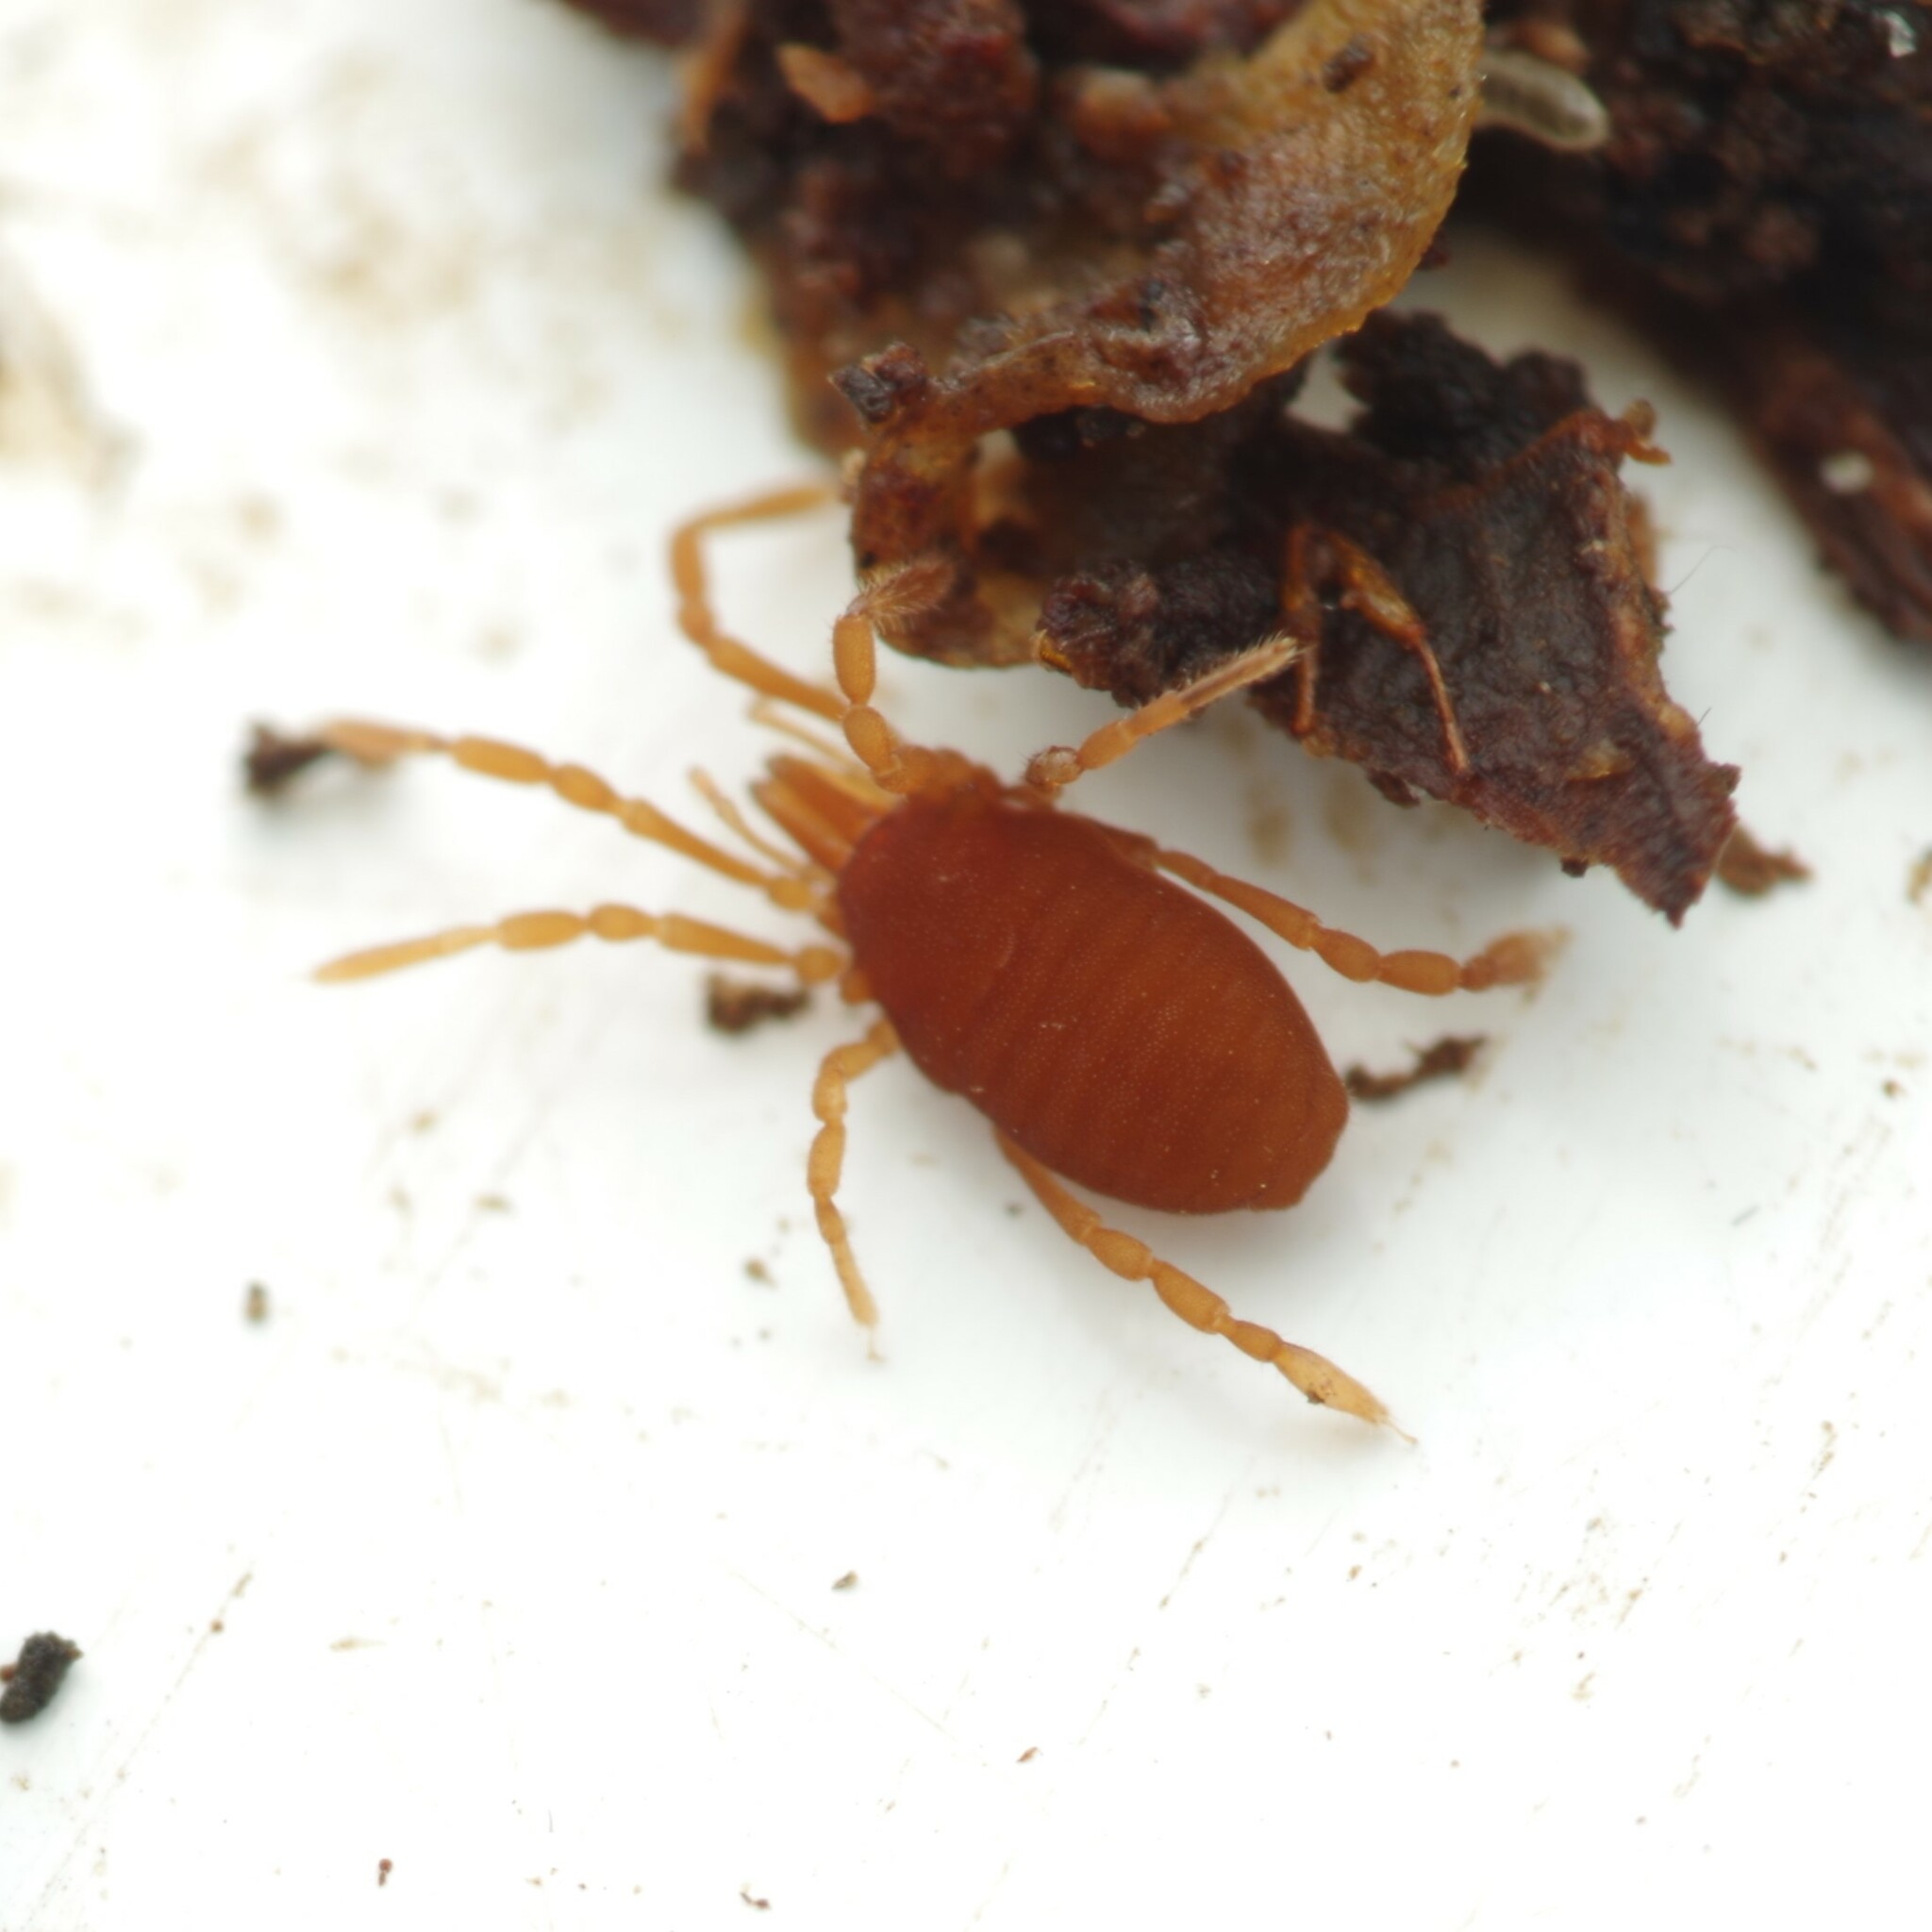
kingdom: Animalia
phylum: Arthropoda
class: Arachnida
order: Opiliones
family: Sironidae
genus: Siro
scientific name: Siro rubens
